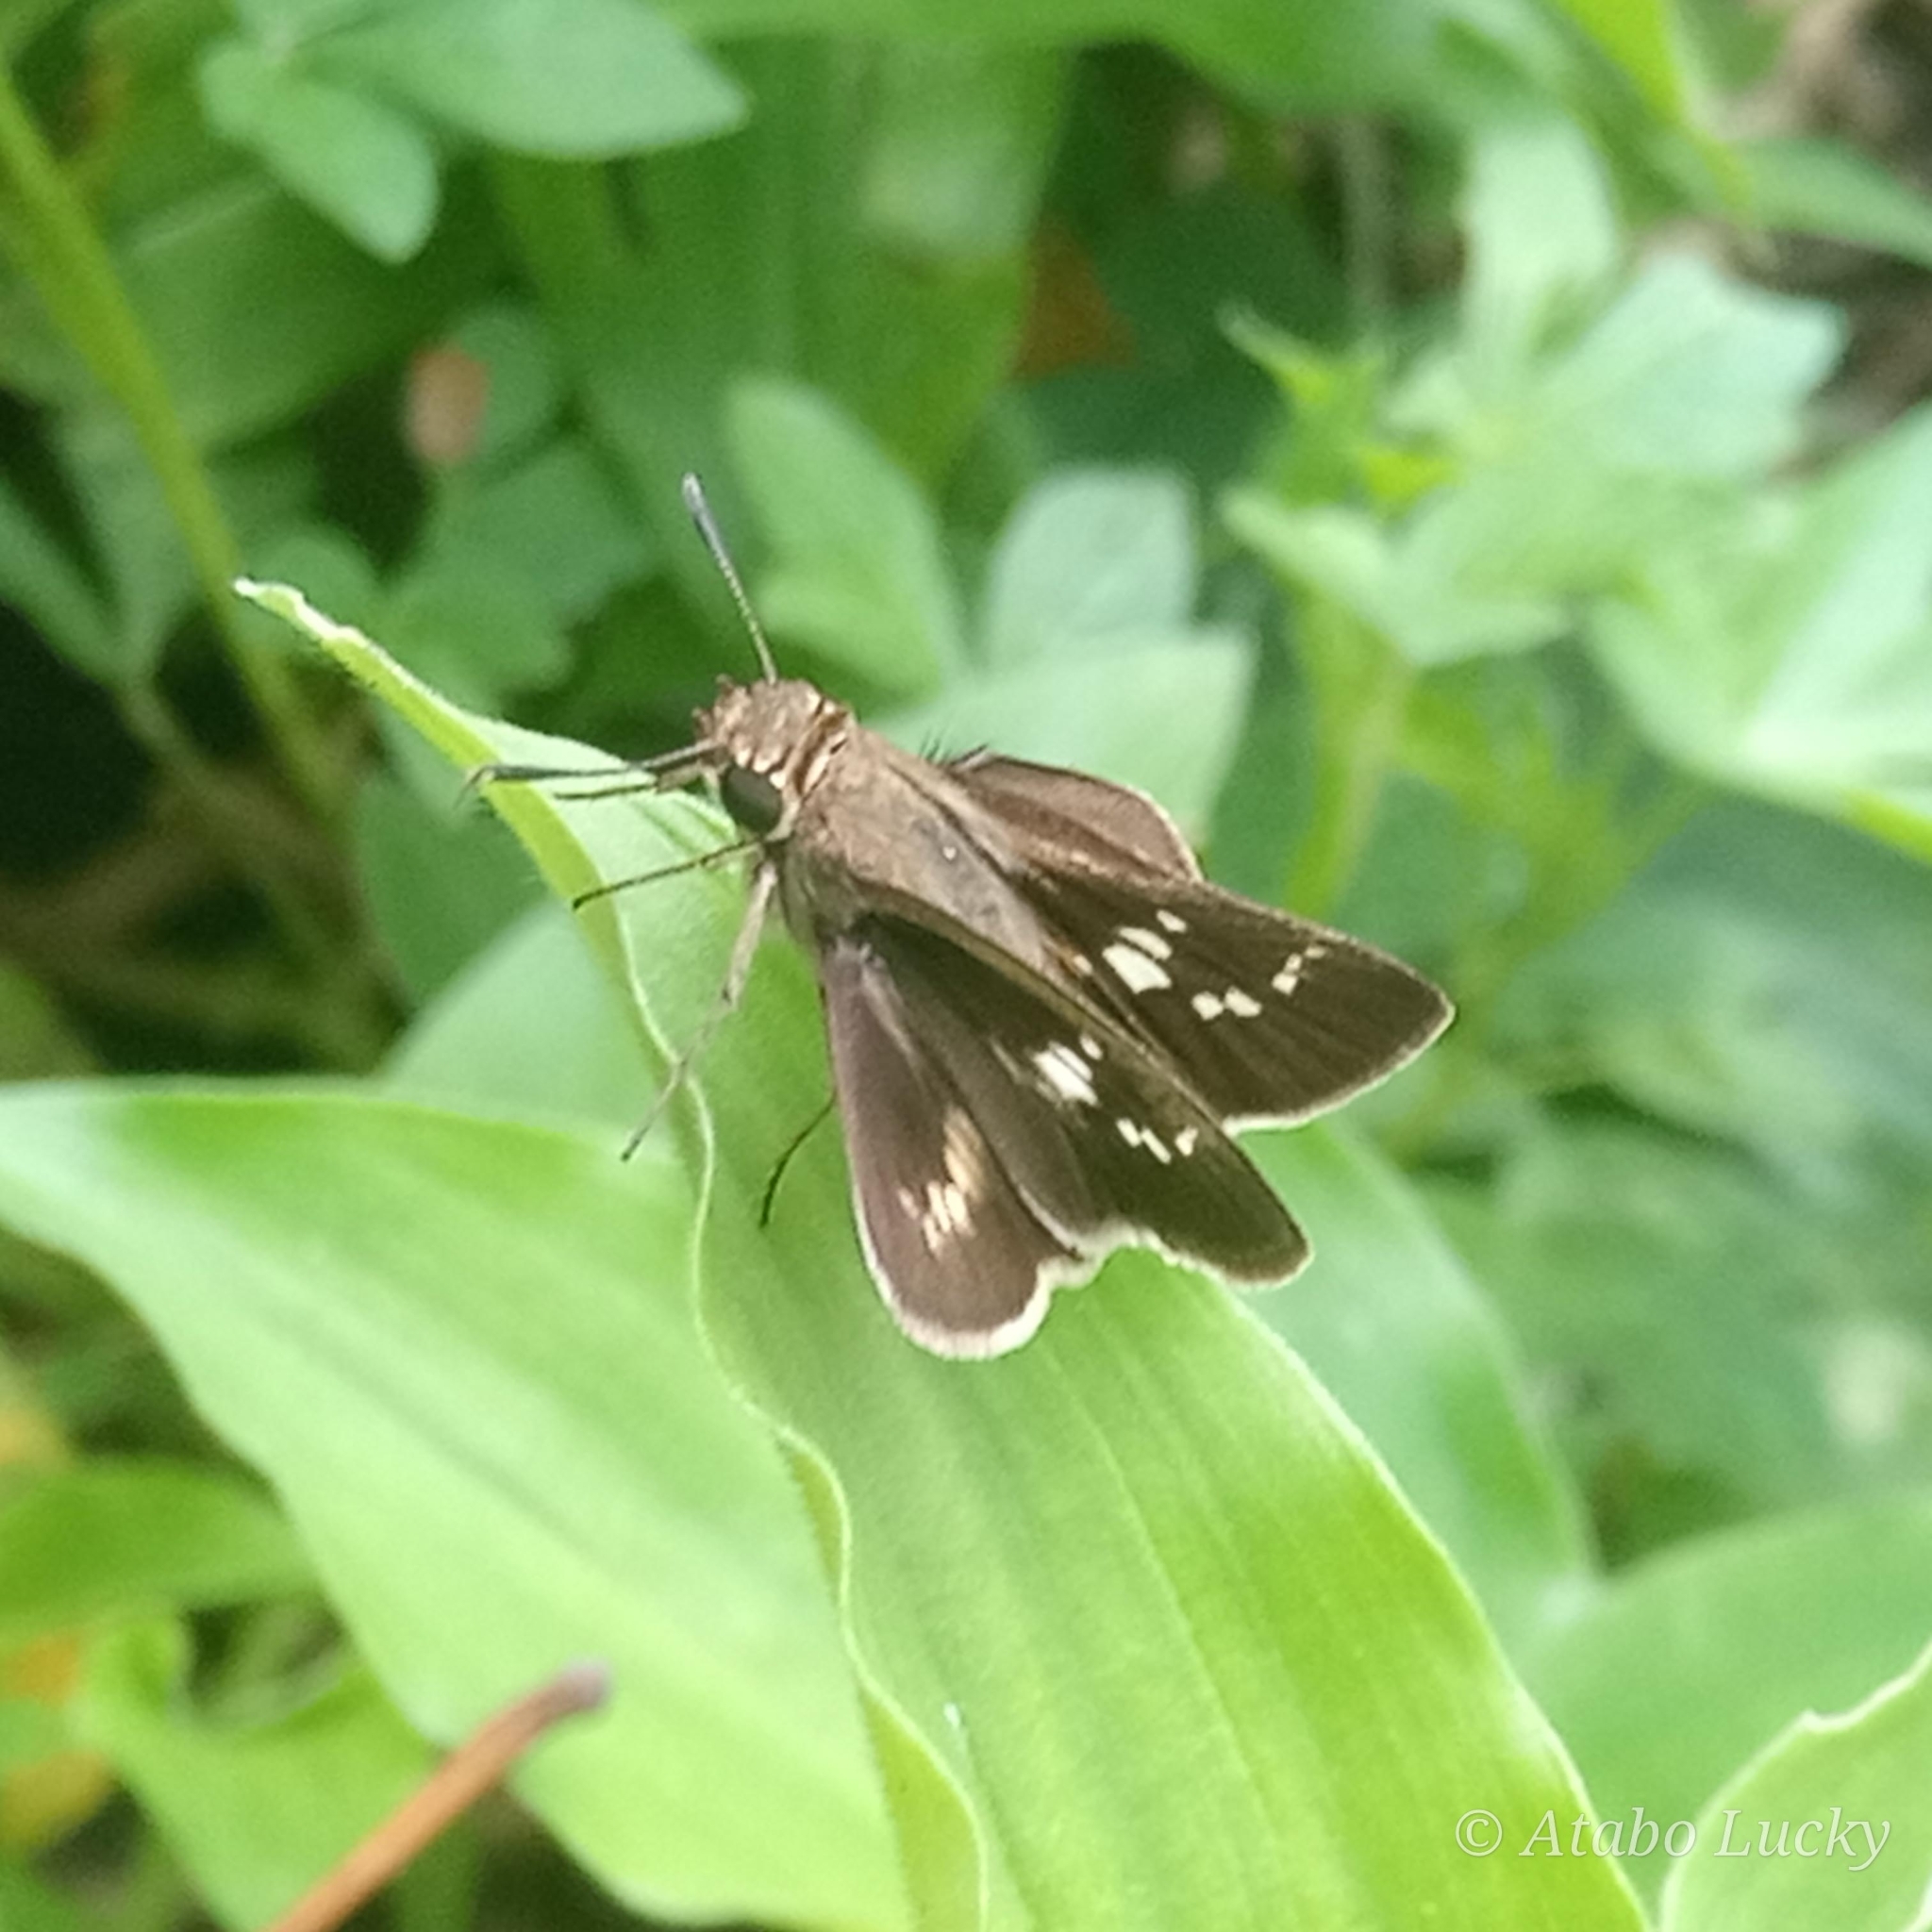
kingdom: Animalia
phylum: Arthropoda
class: Insecta
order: Lepidoptera
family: Hesperiidae
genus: Platylesches
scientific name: Platylesches moritili
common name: Honey hopper
